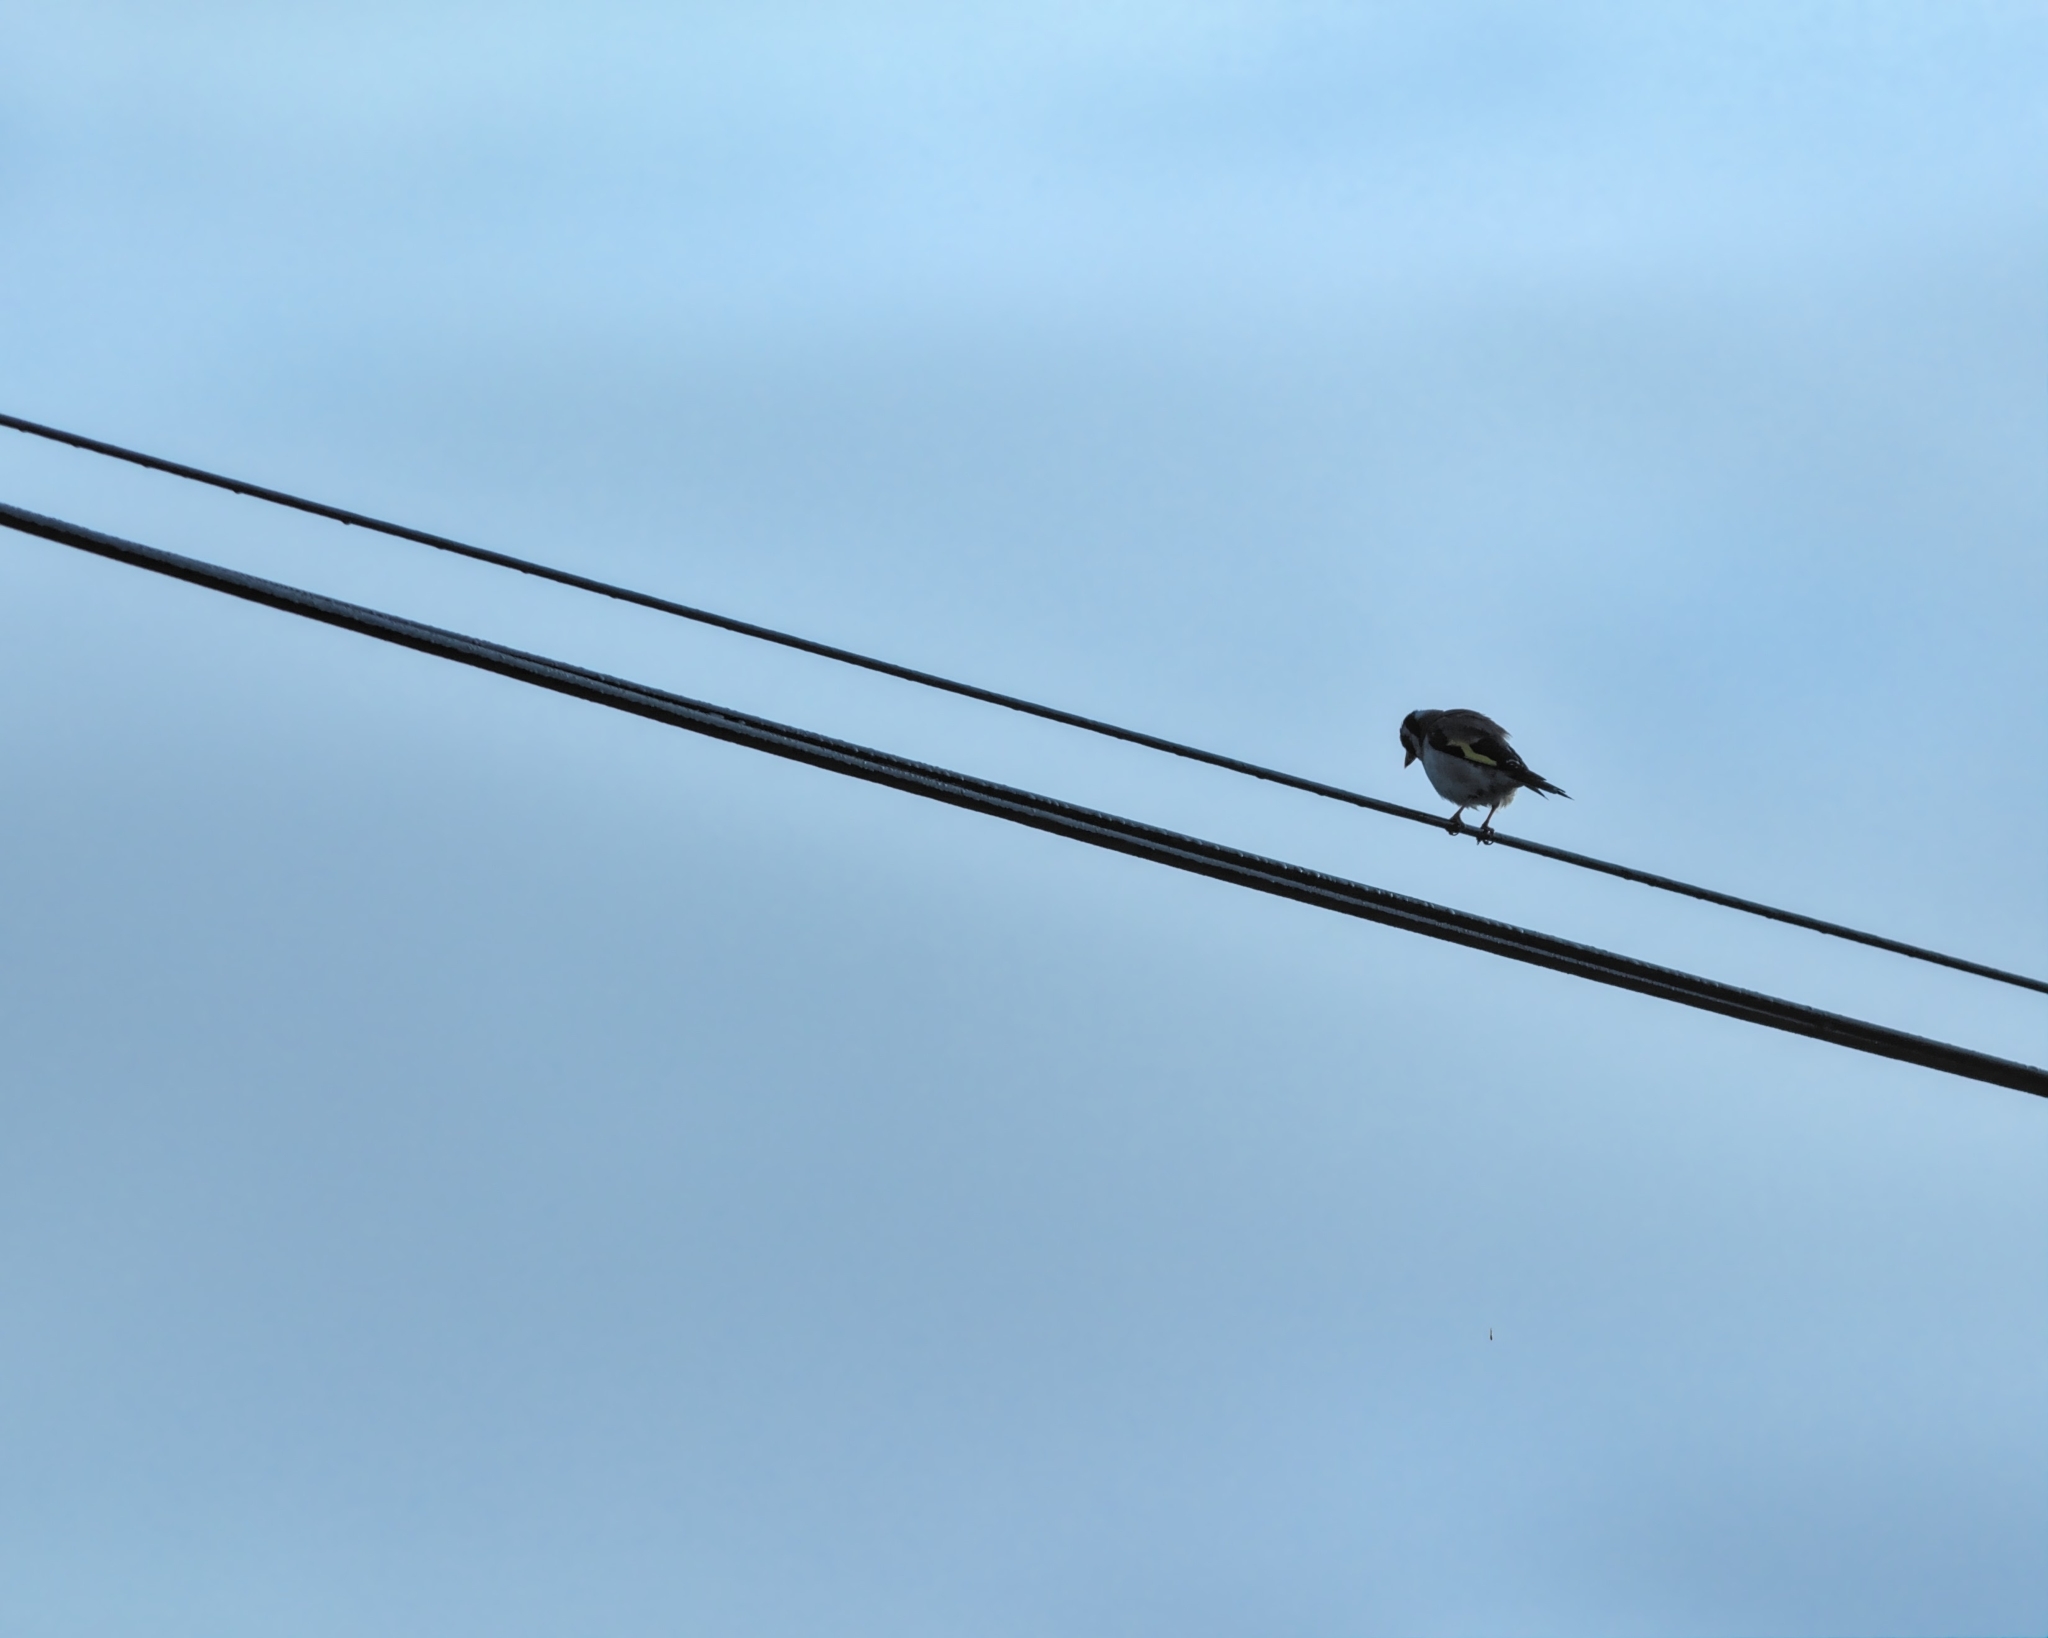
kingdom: Animalia
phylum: Chordata
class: Aves
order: Passeriformes
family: Passeridae
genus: Passer
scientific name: Passer domesticus
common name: House sparrow
